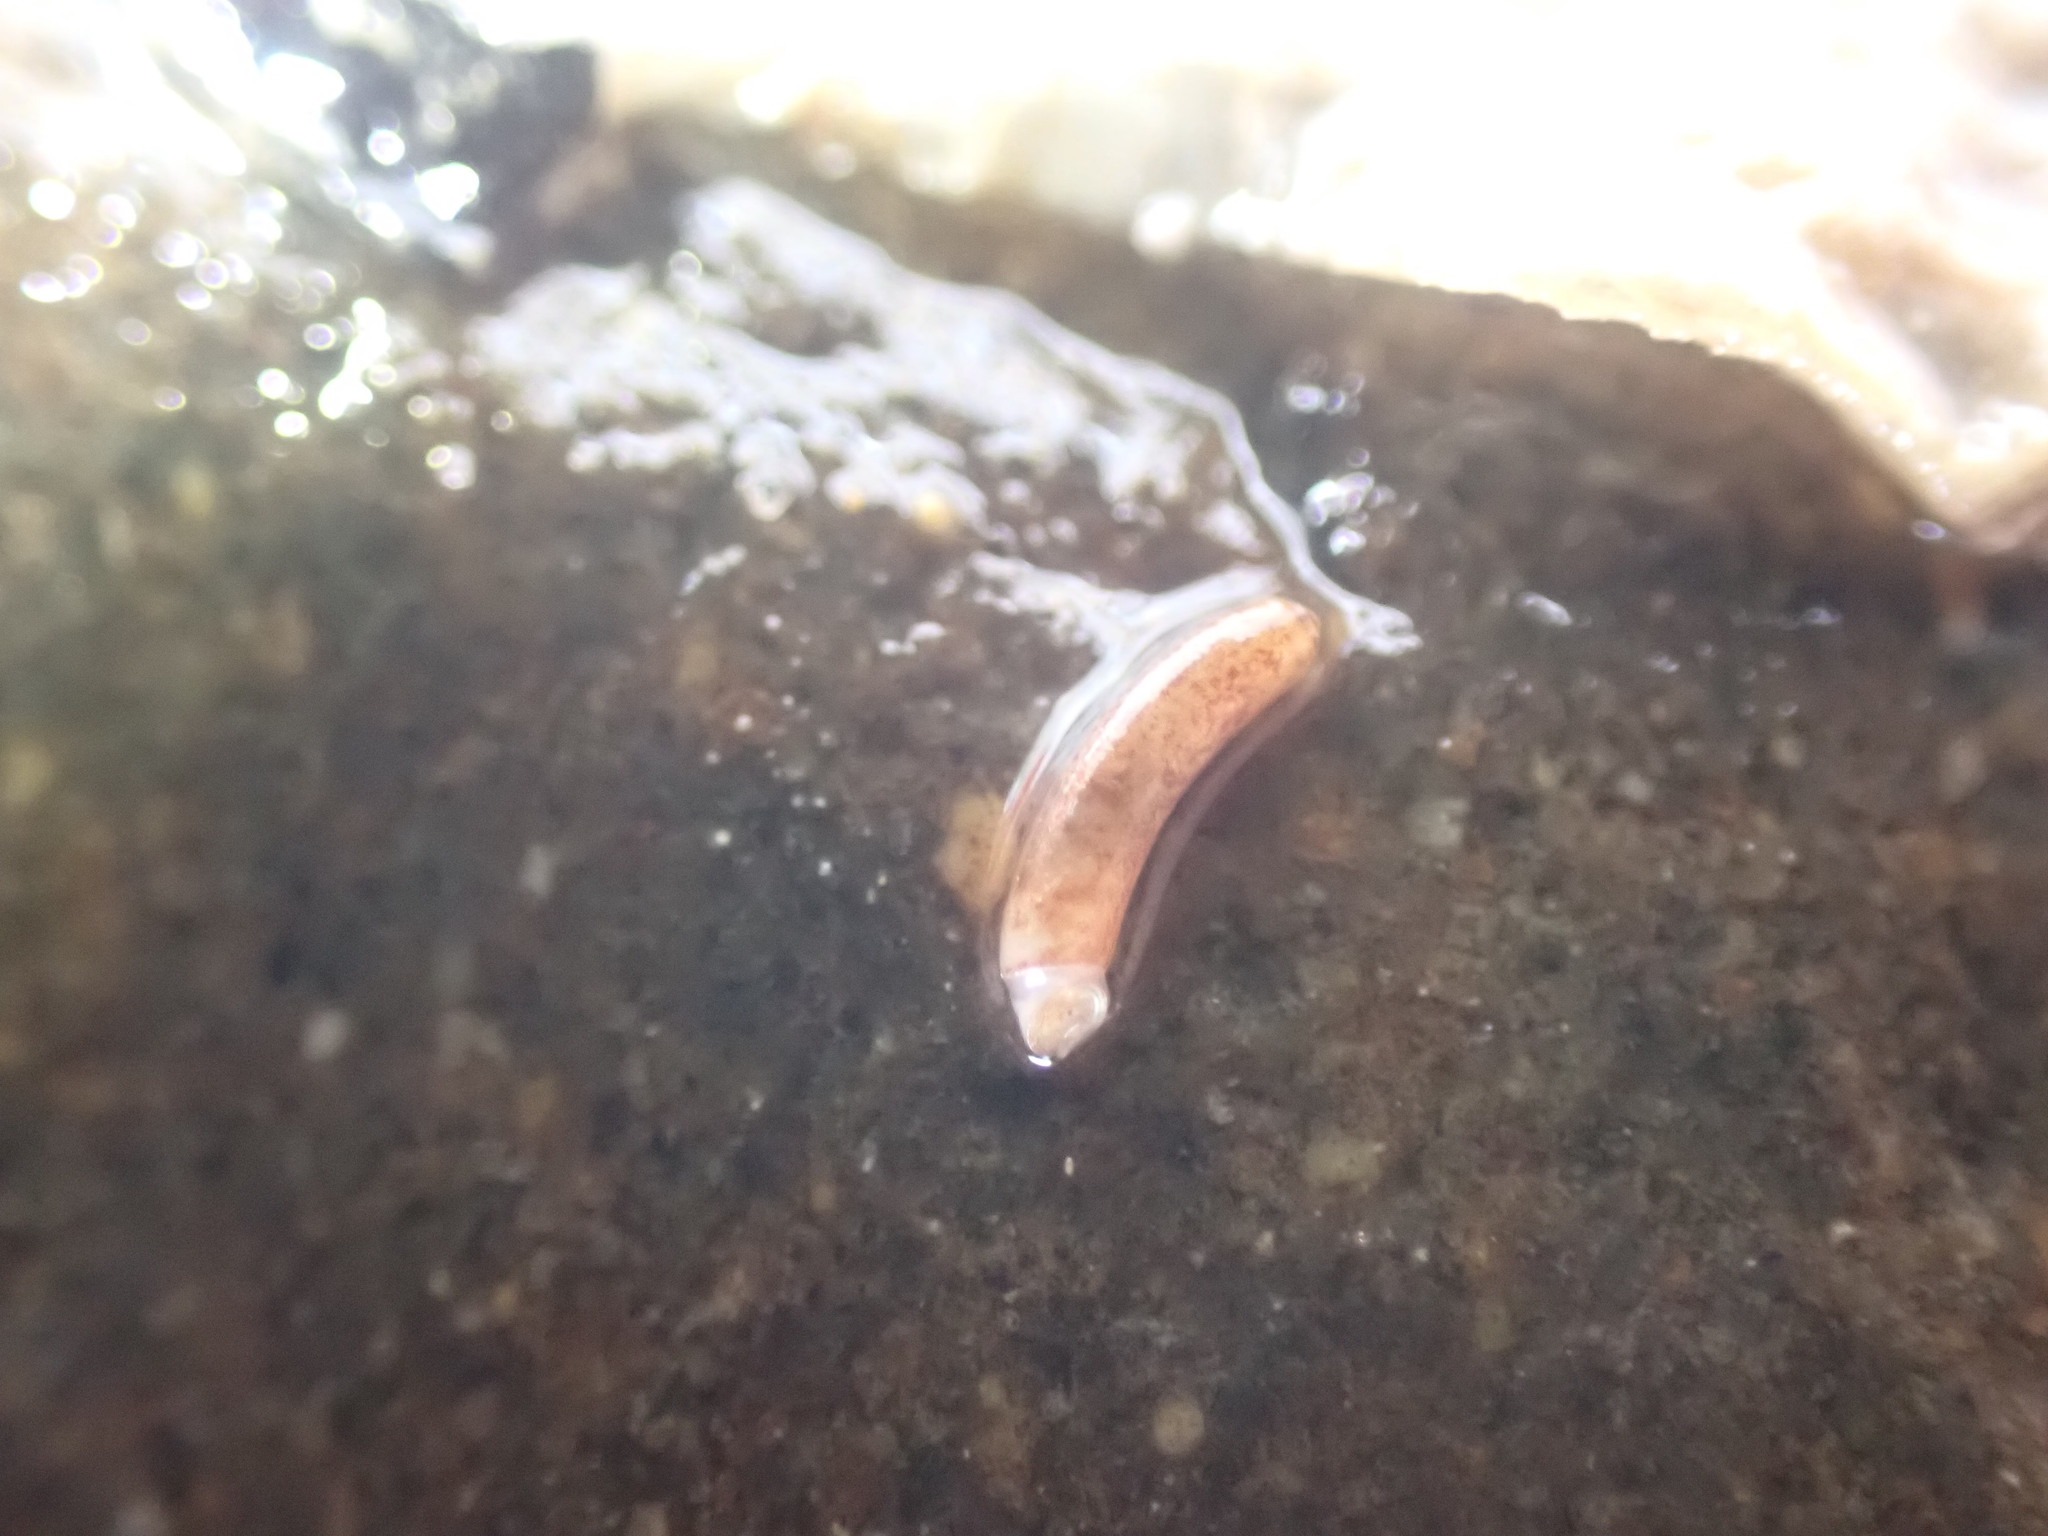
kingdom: Animalia
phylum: Mollusca
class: Gastropoda
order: Littorinimorpha
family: Caecidae
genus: Caecum
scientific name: Caecum
